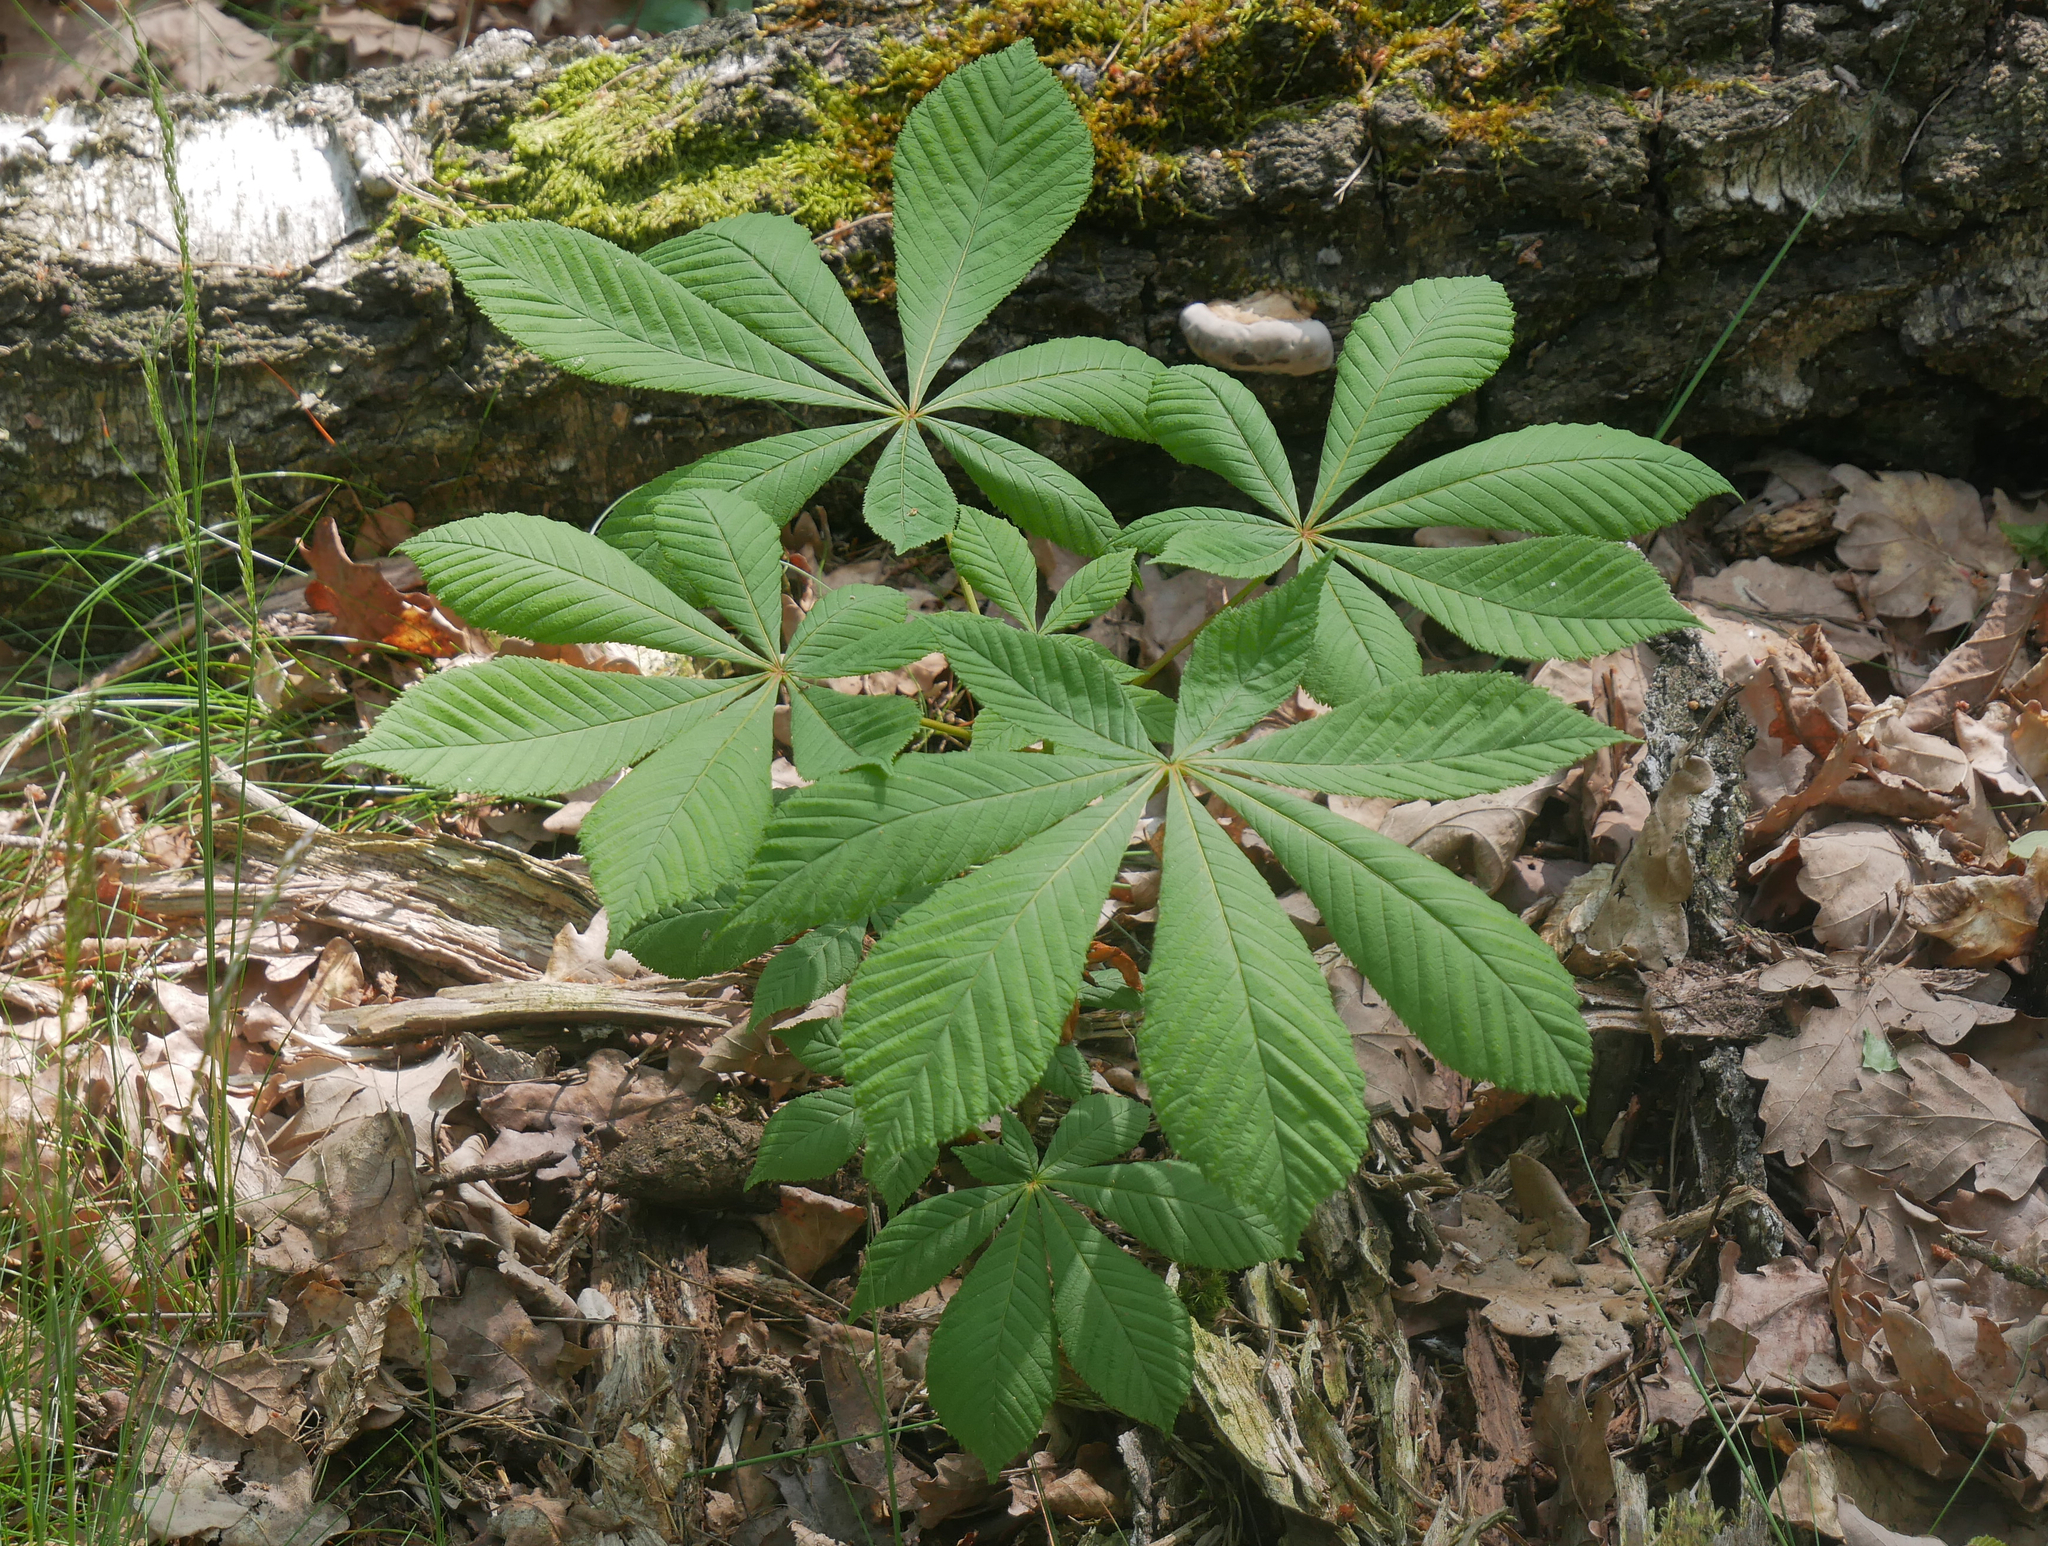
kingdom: Plantae
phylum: Tracheophyta
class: Magnoliopsida
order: Sapindales
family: Sapindaceae
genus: Aesculus
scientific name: Aesculus hippocastanum
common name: Horse-chestnut
